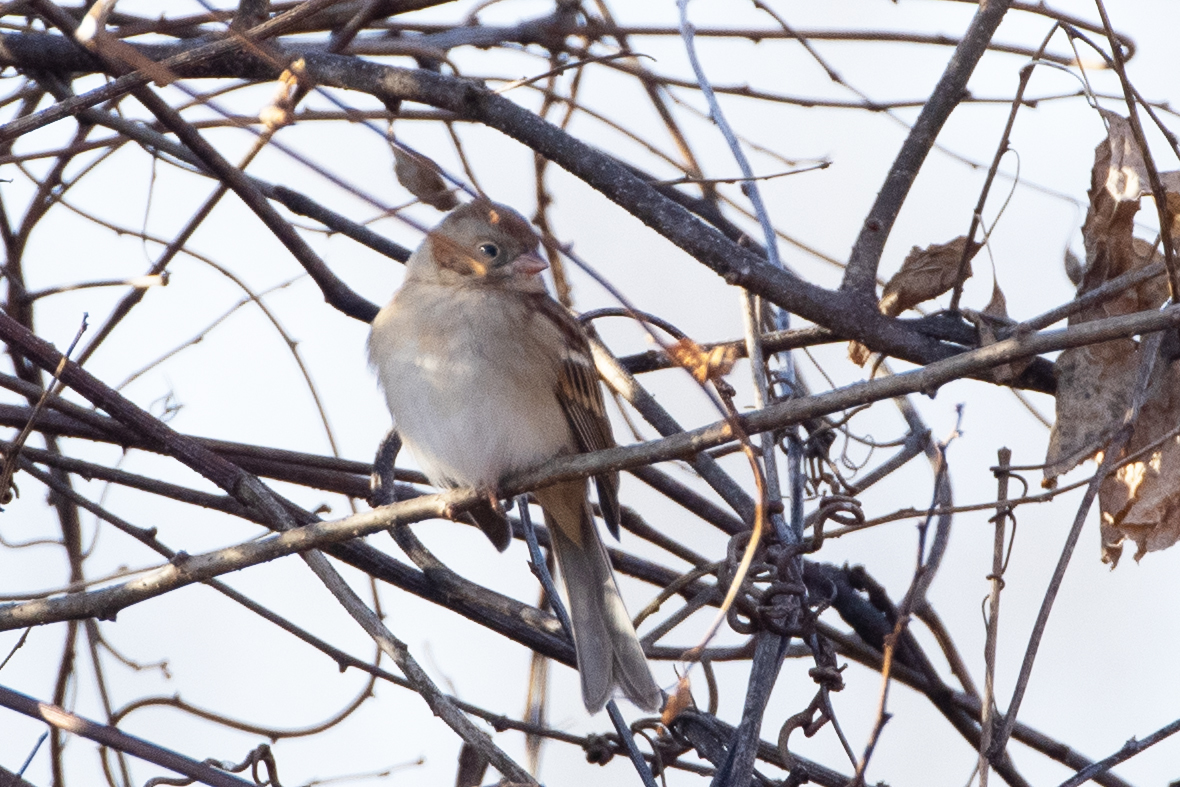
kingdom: Animalia
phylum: Chordata
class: Aves
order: Passeriformes
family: Passerellidae
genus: Spizella
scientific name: Spizella pusilla
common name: Field sparrow
